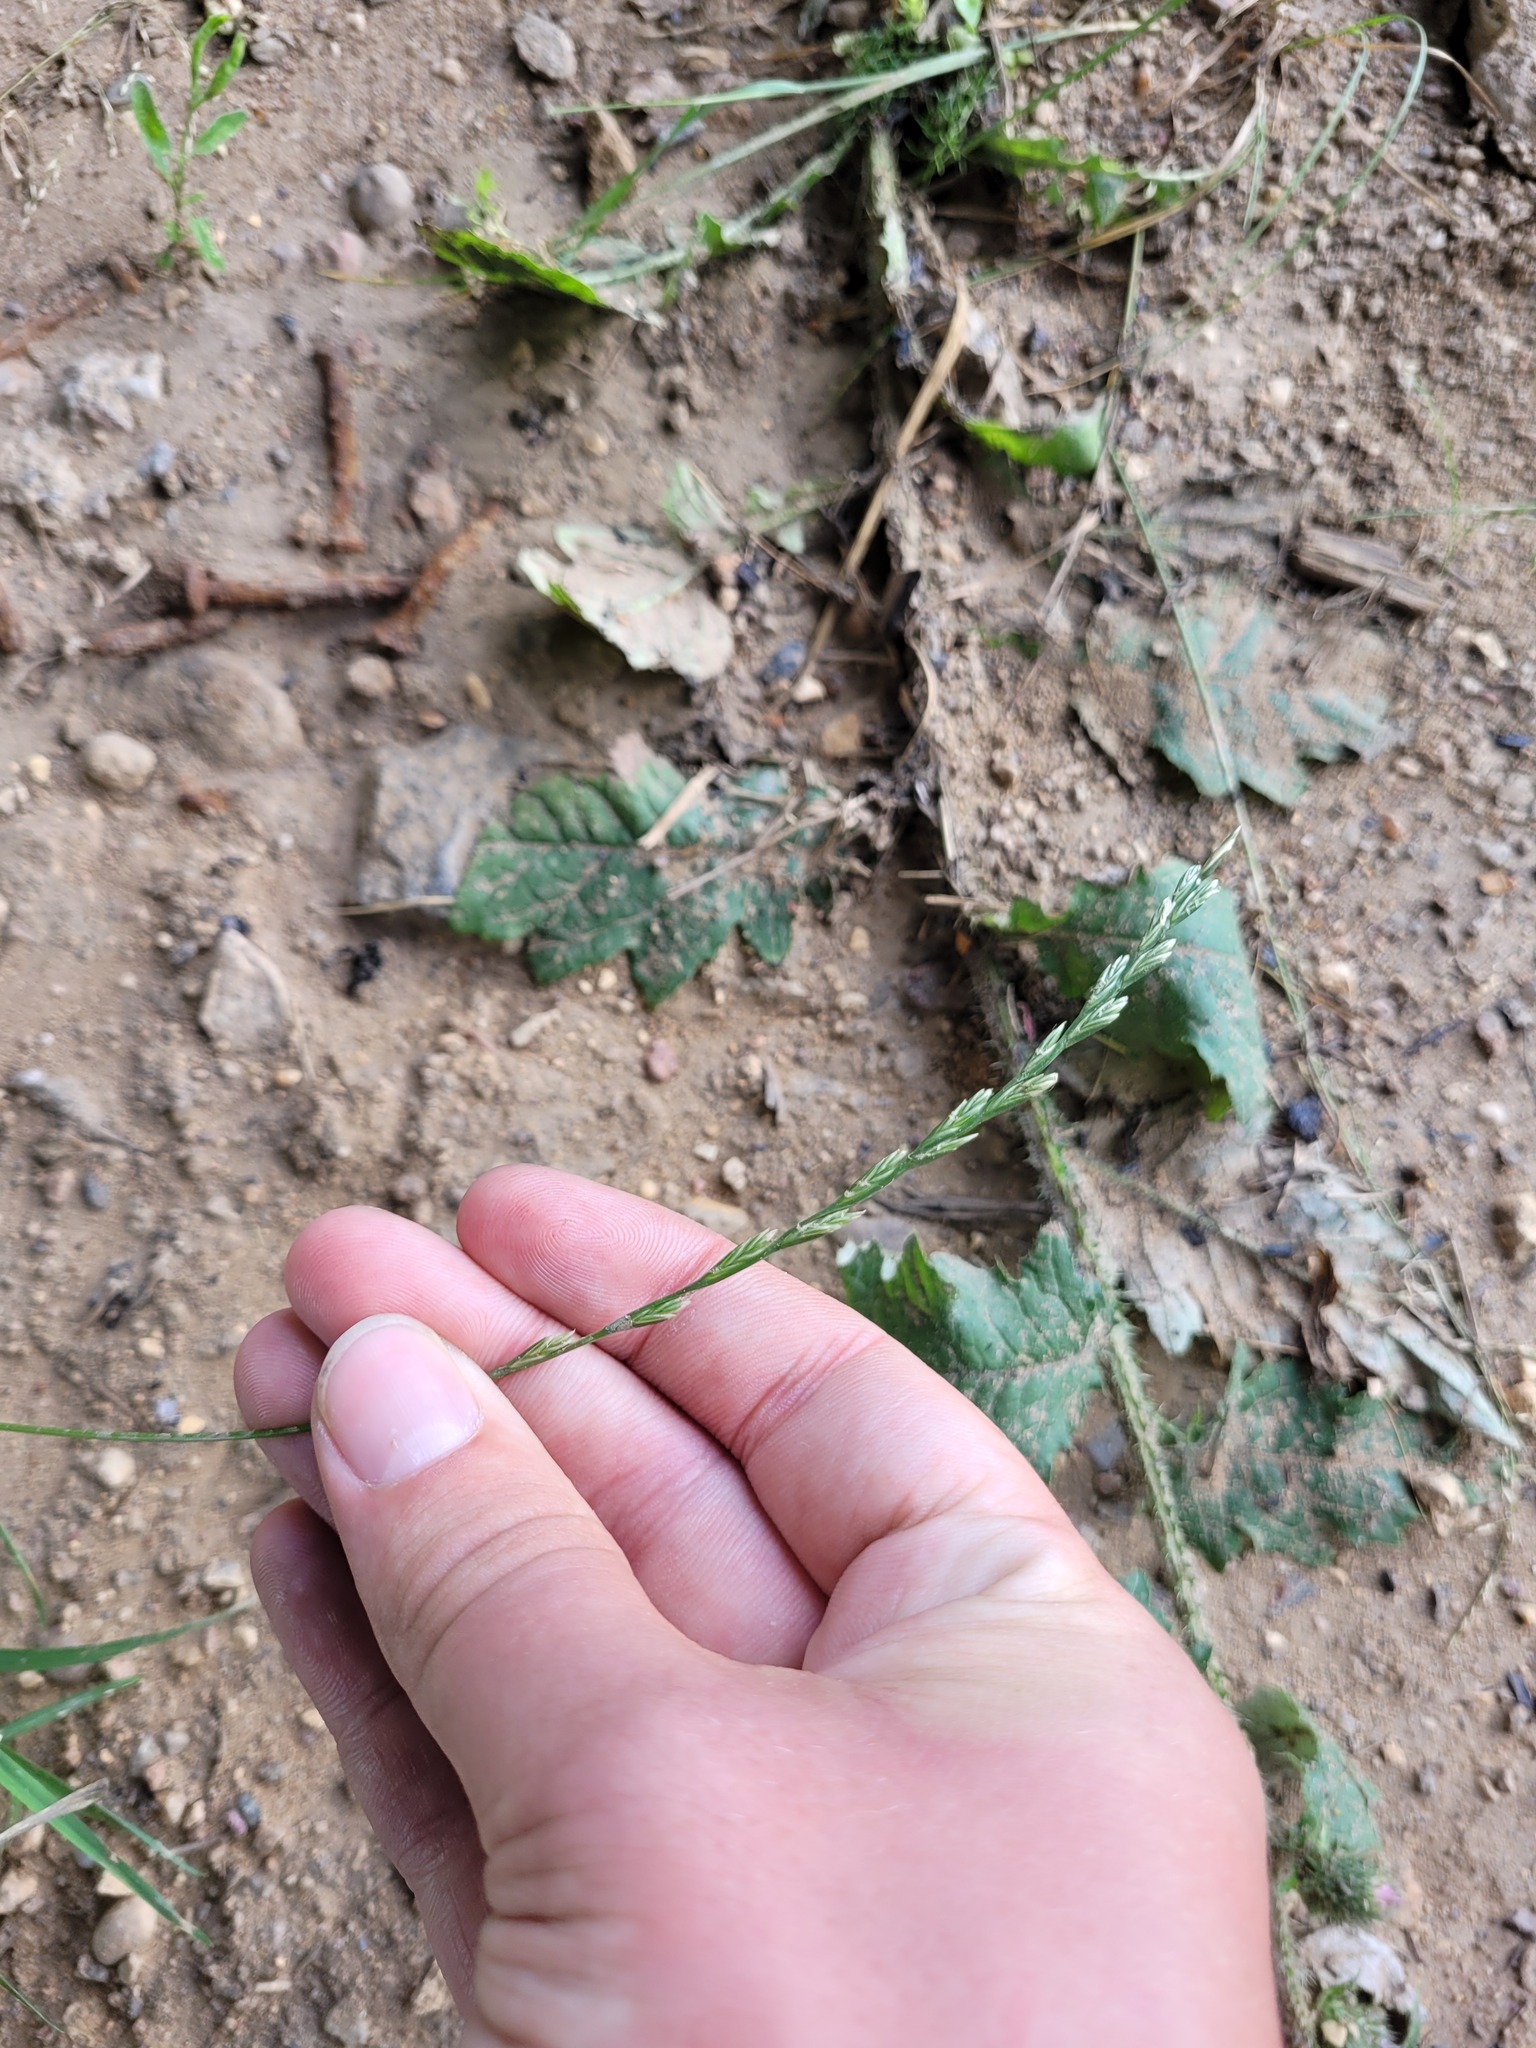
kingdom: Plantae
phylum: Tracheophyta
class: Liliopsida
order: Poales
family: Poaceae
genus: Lolium
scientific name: Lolium perenne
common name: Perennial ryegrass
